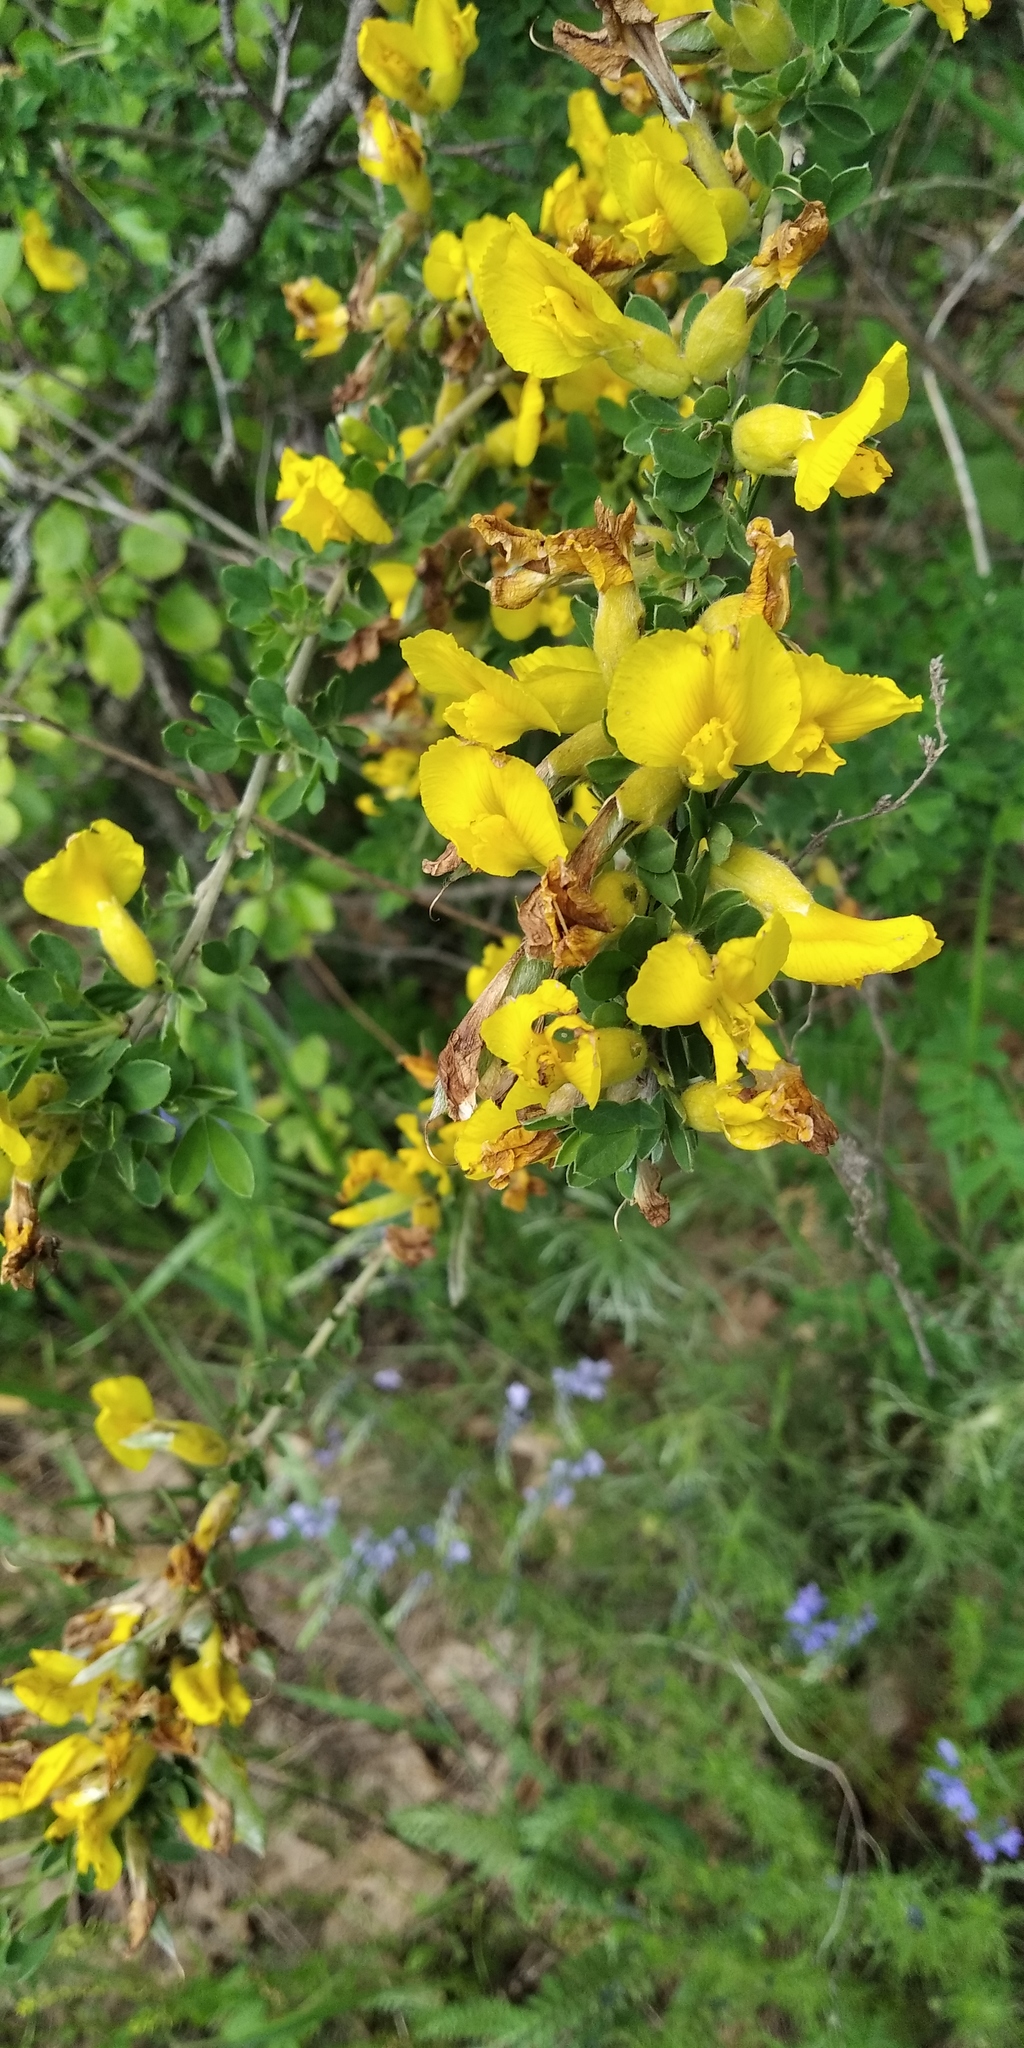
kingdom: Plantae
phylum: Tracheophyta
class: Magnoliopsida
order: Fabales
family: Fabaceae
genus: Chamaecytisus
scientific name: Chamaecytisus ruthenicus
